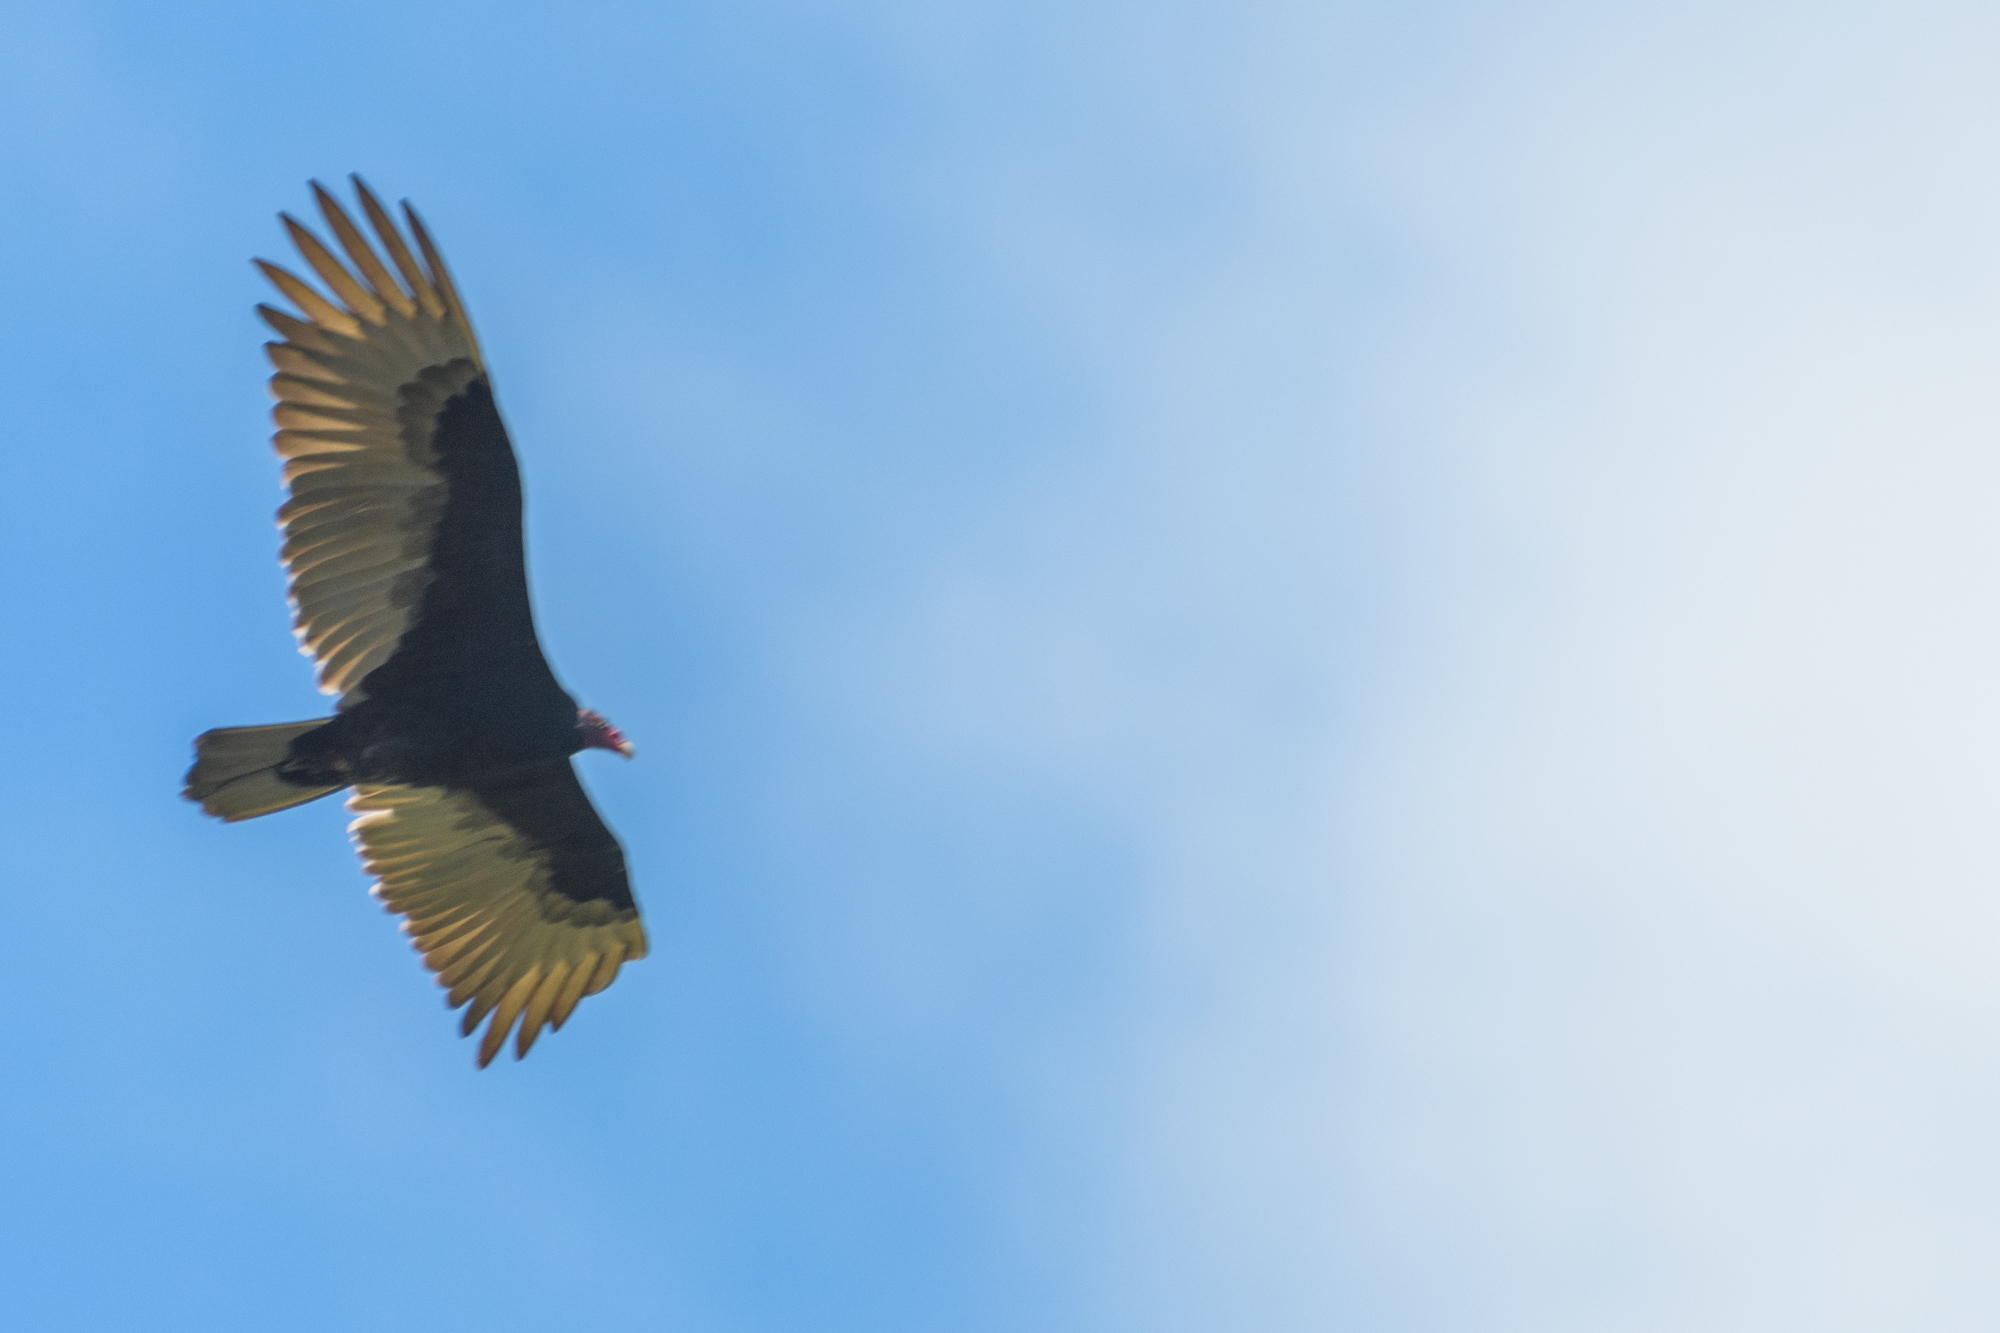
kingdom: Animalia
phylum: Chordata
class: Aves
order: Accipitriformes
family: Cathartidae
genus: Cathartes
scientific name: Cathartes aura
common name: Turkey vulture
